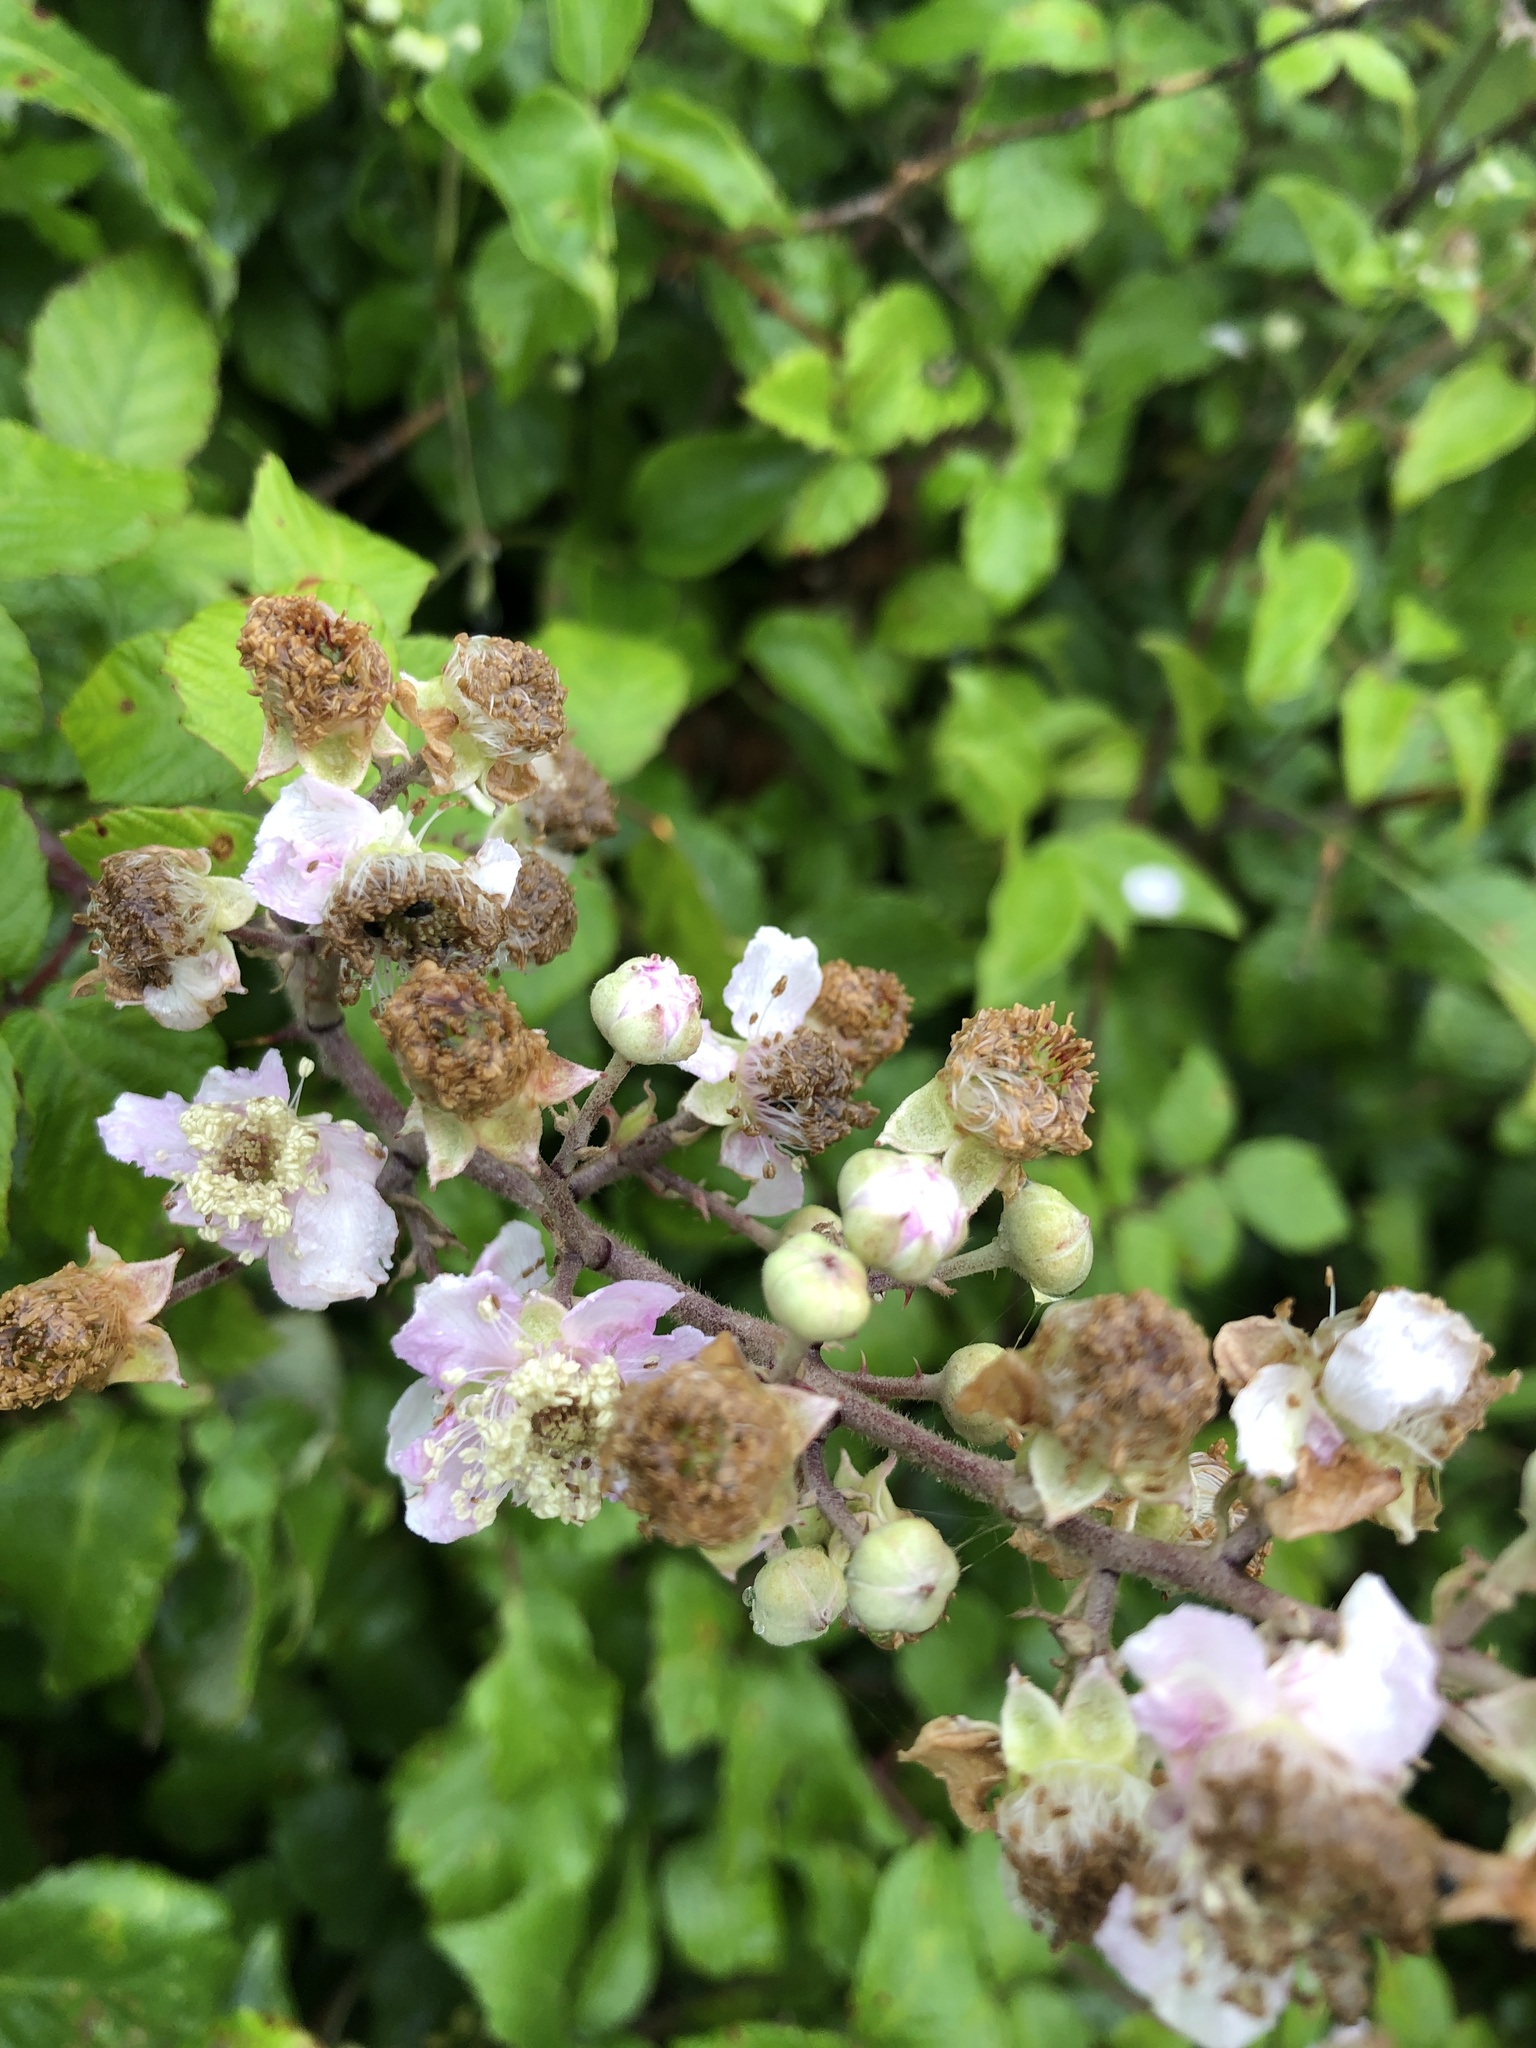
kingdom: Plantae
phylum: Tracheophyta
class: Magnoliopsida
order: Rosales
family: Rosaceae
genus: Rubus
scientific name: Rubus fruticosus
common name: Blackberry, bramble
